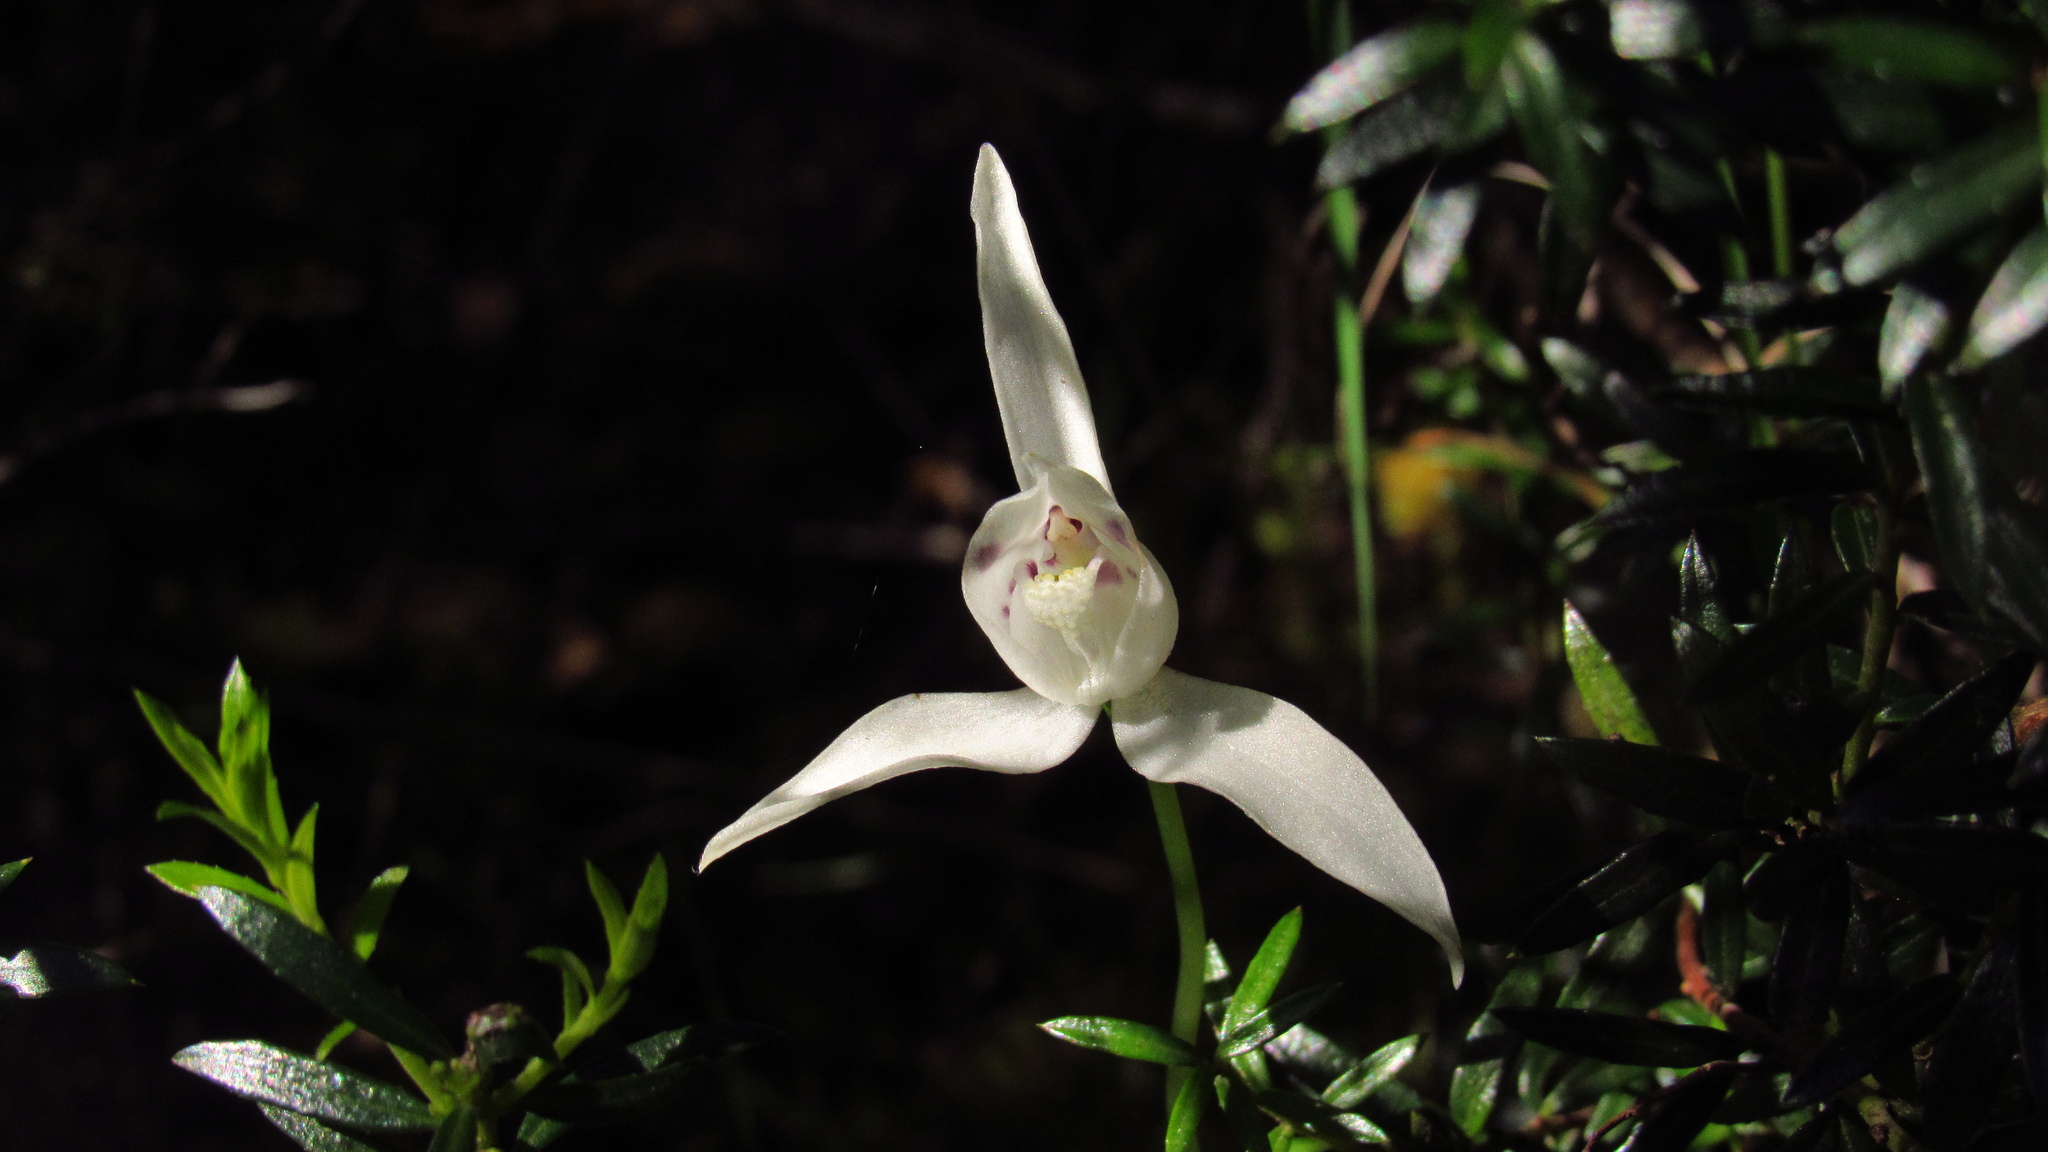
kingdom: Plantae
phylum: Tracheophyta
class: Liliopsida
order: Asparagales
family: Orchidaceae
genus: Codonorchis
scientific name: Codonorchis lessonii
